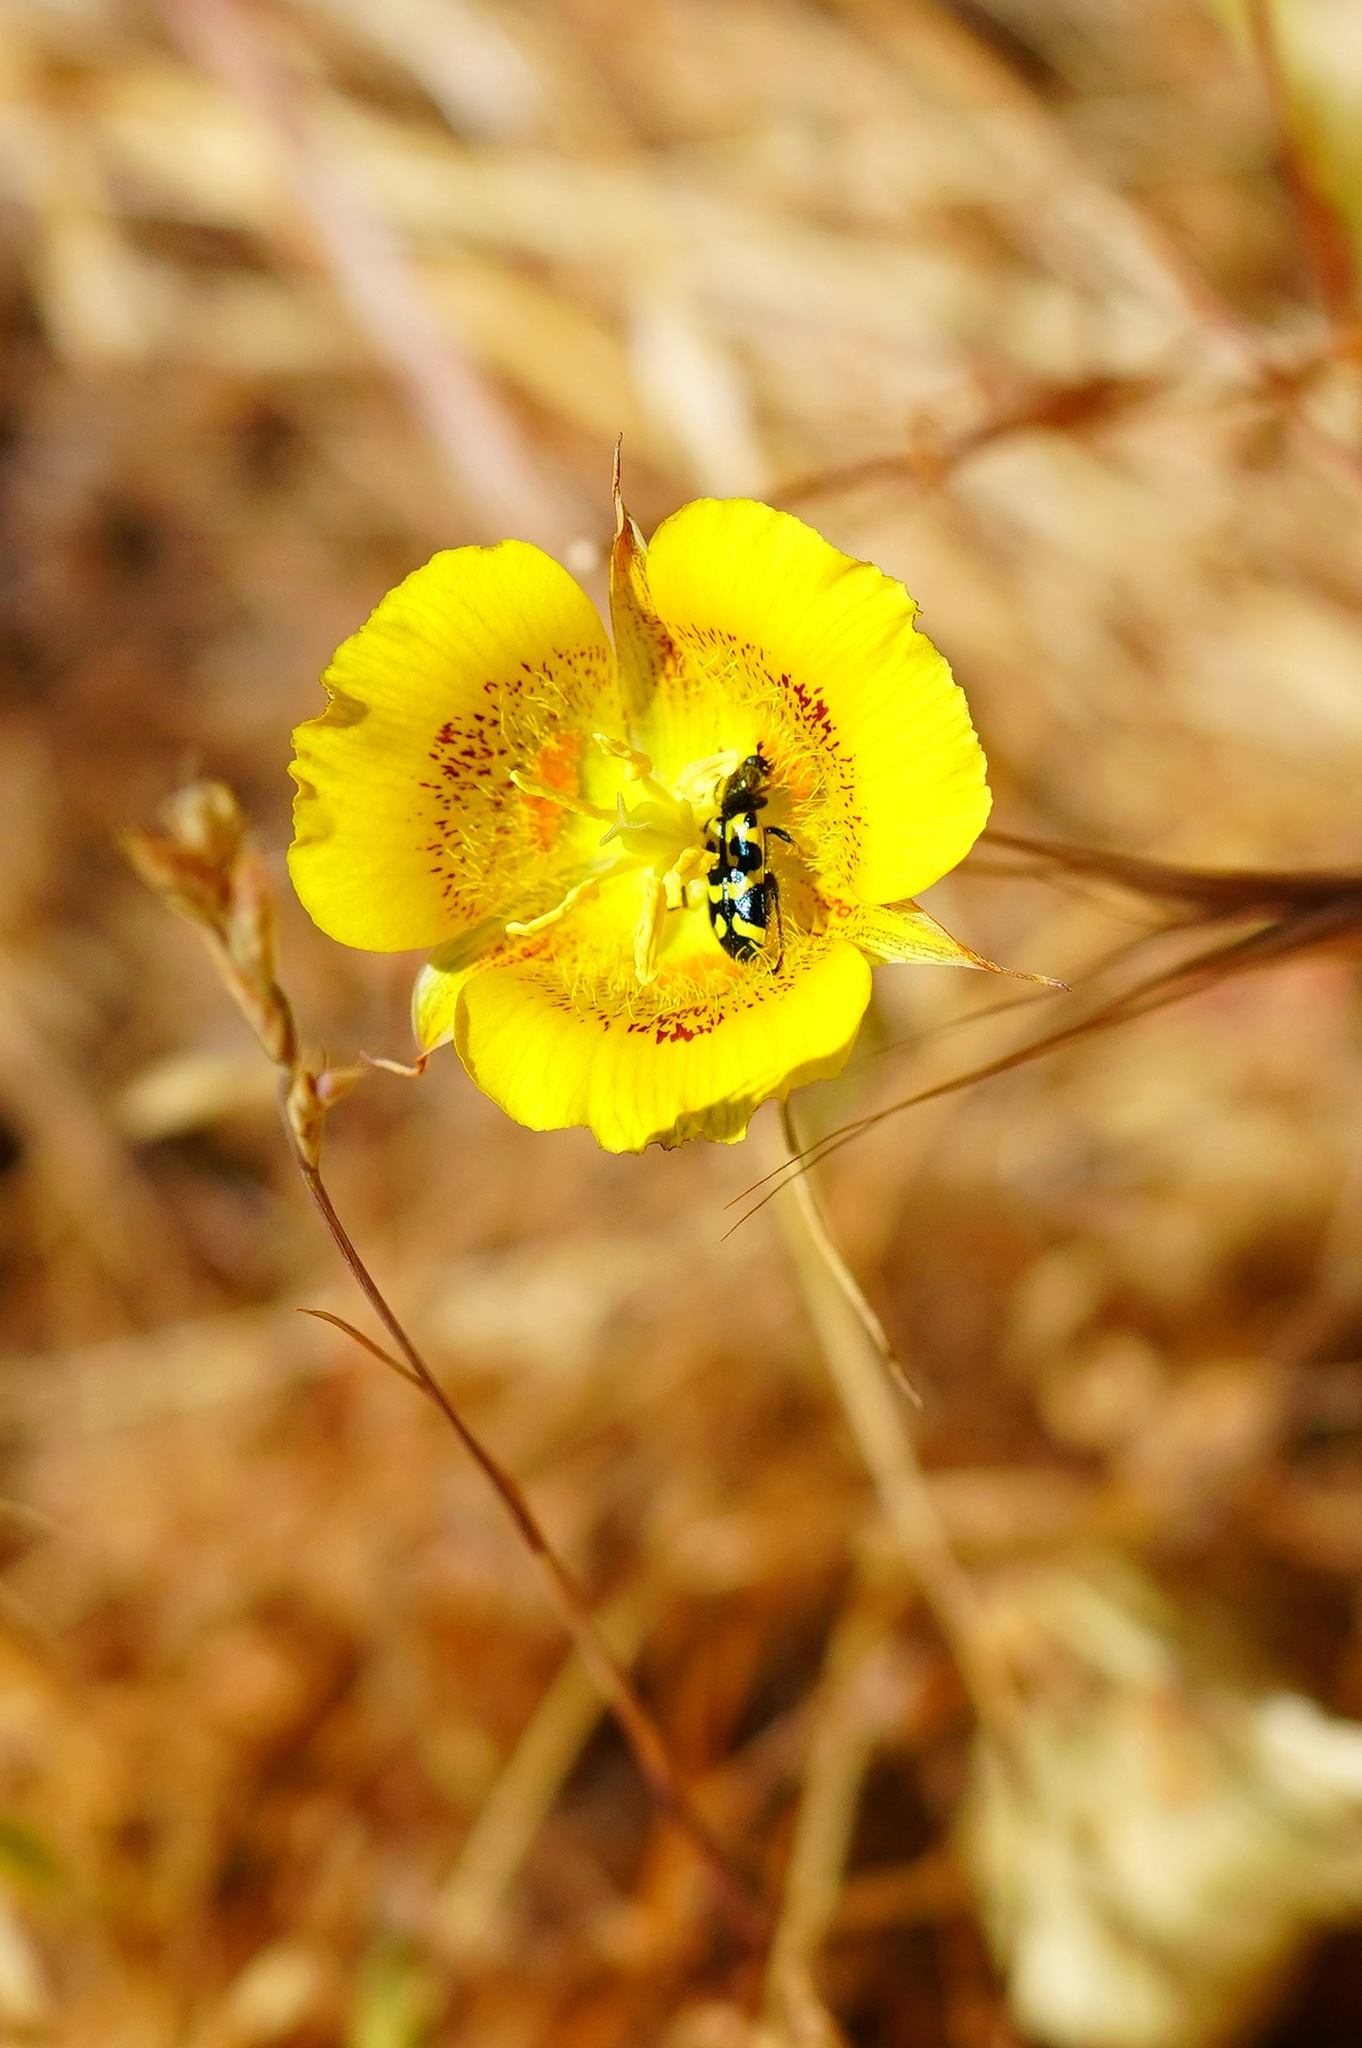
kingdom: Plantae
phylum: Tracheophyta
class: Liliopsida
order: Liliales
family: Liliaceae
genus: Calochortus
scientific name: Calochortus luteus
